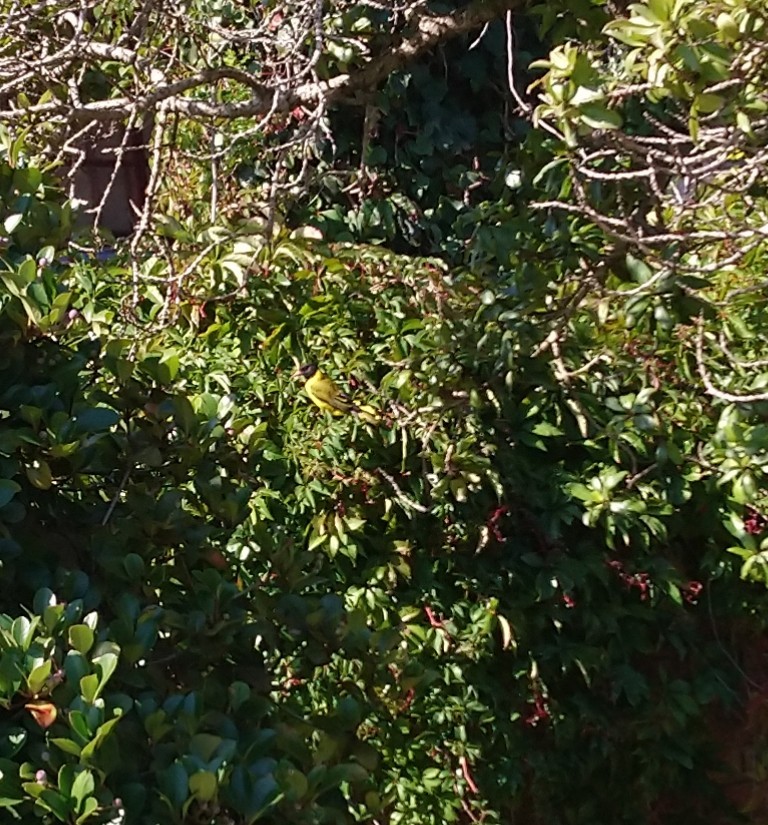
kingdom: Animalia
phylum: Chordata
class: Aves
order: Passeriformes
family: Oriolidae
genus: Oriolus
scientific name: Oriolus larvatus
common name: Black-headed oriole
